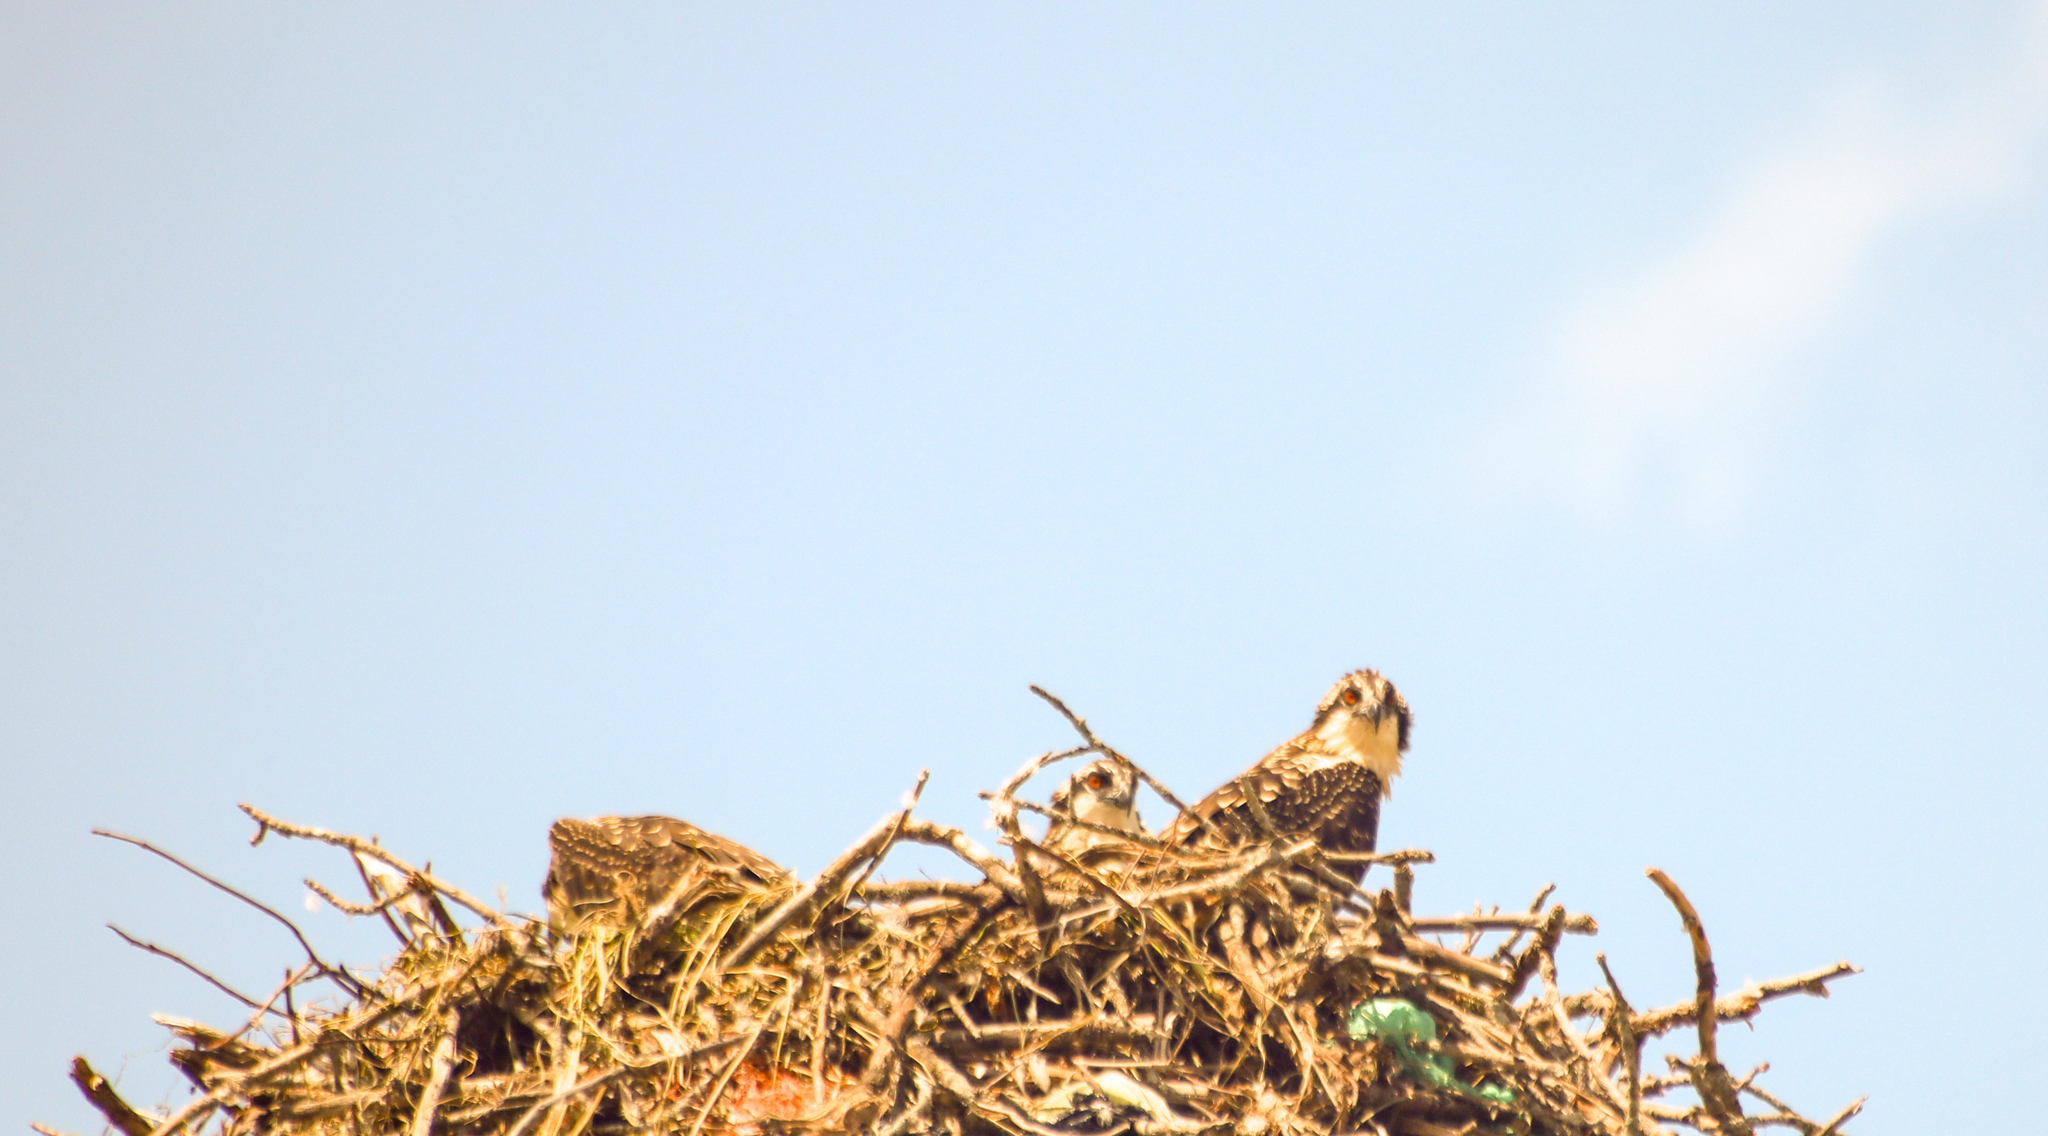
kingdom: Animalia
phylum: Chordata
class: Aves
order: Accipitriformes
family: Pandionidae
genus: Pandion
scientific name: Pandion haliaetus
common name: Osprey
